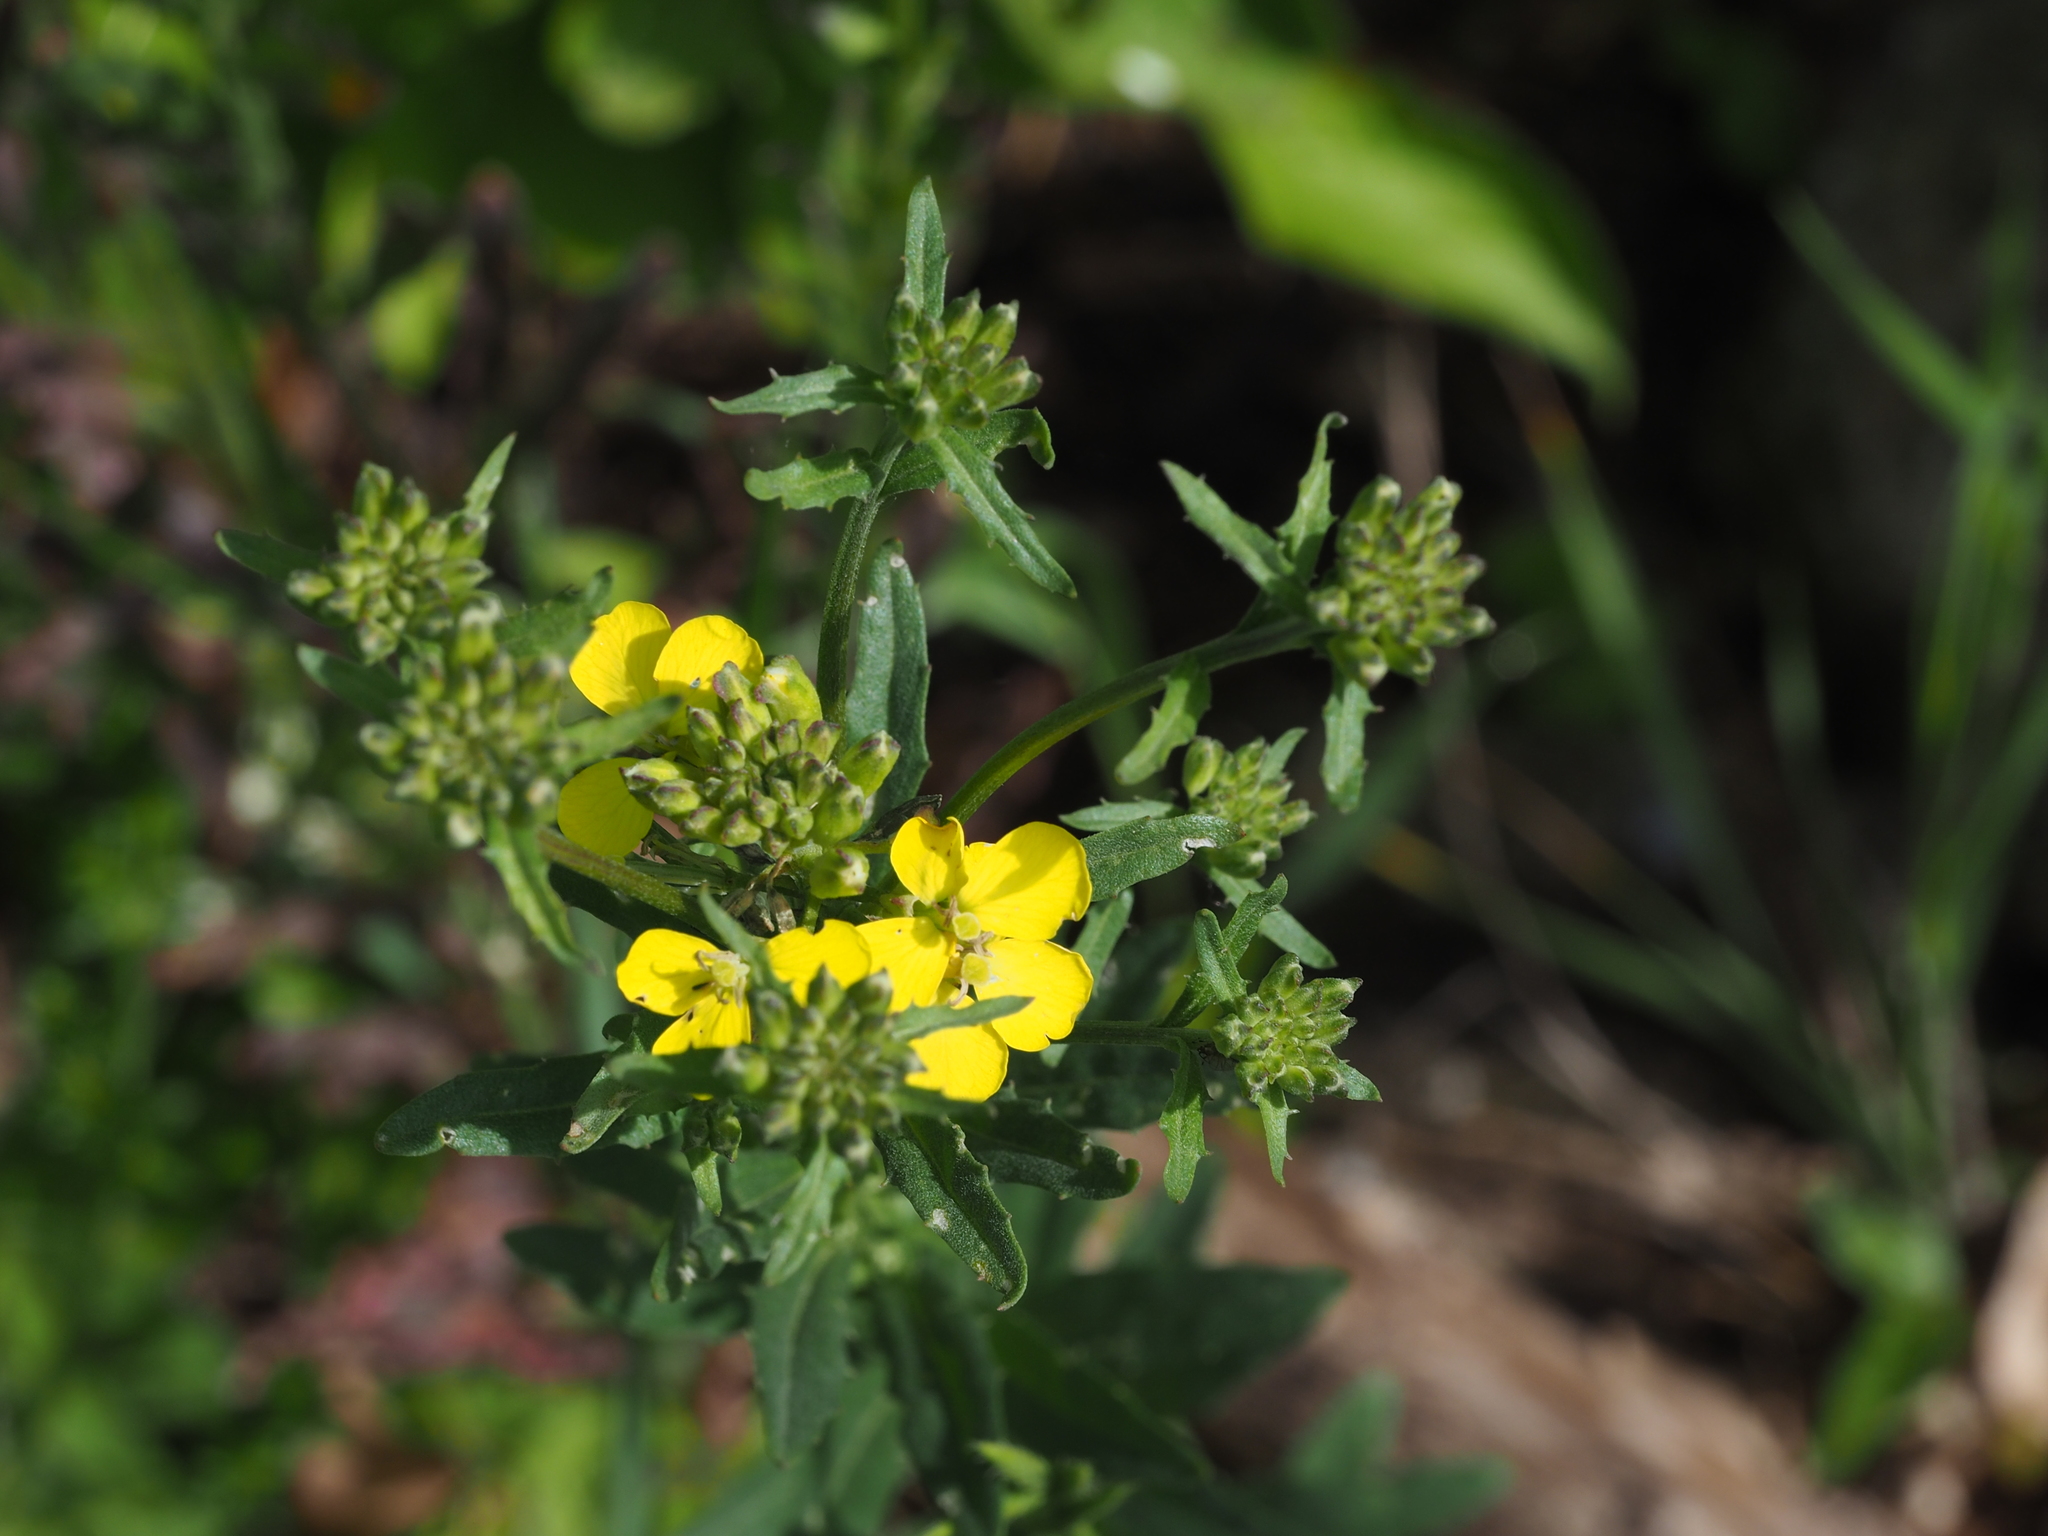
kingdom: Plantae
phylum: Tracheophyta
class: Magnoliopsida
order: Brassicales
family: Brassicaceae
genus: Erysimum
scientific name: Erysimum odoratum
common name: Smelly wallflower
